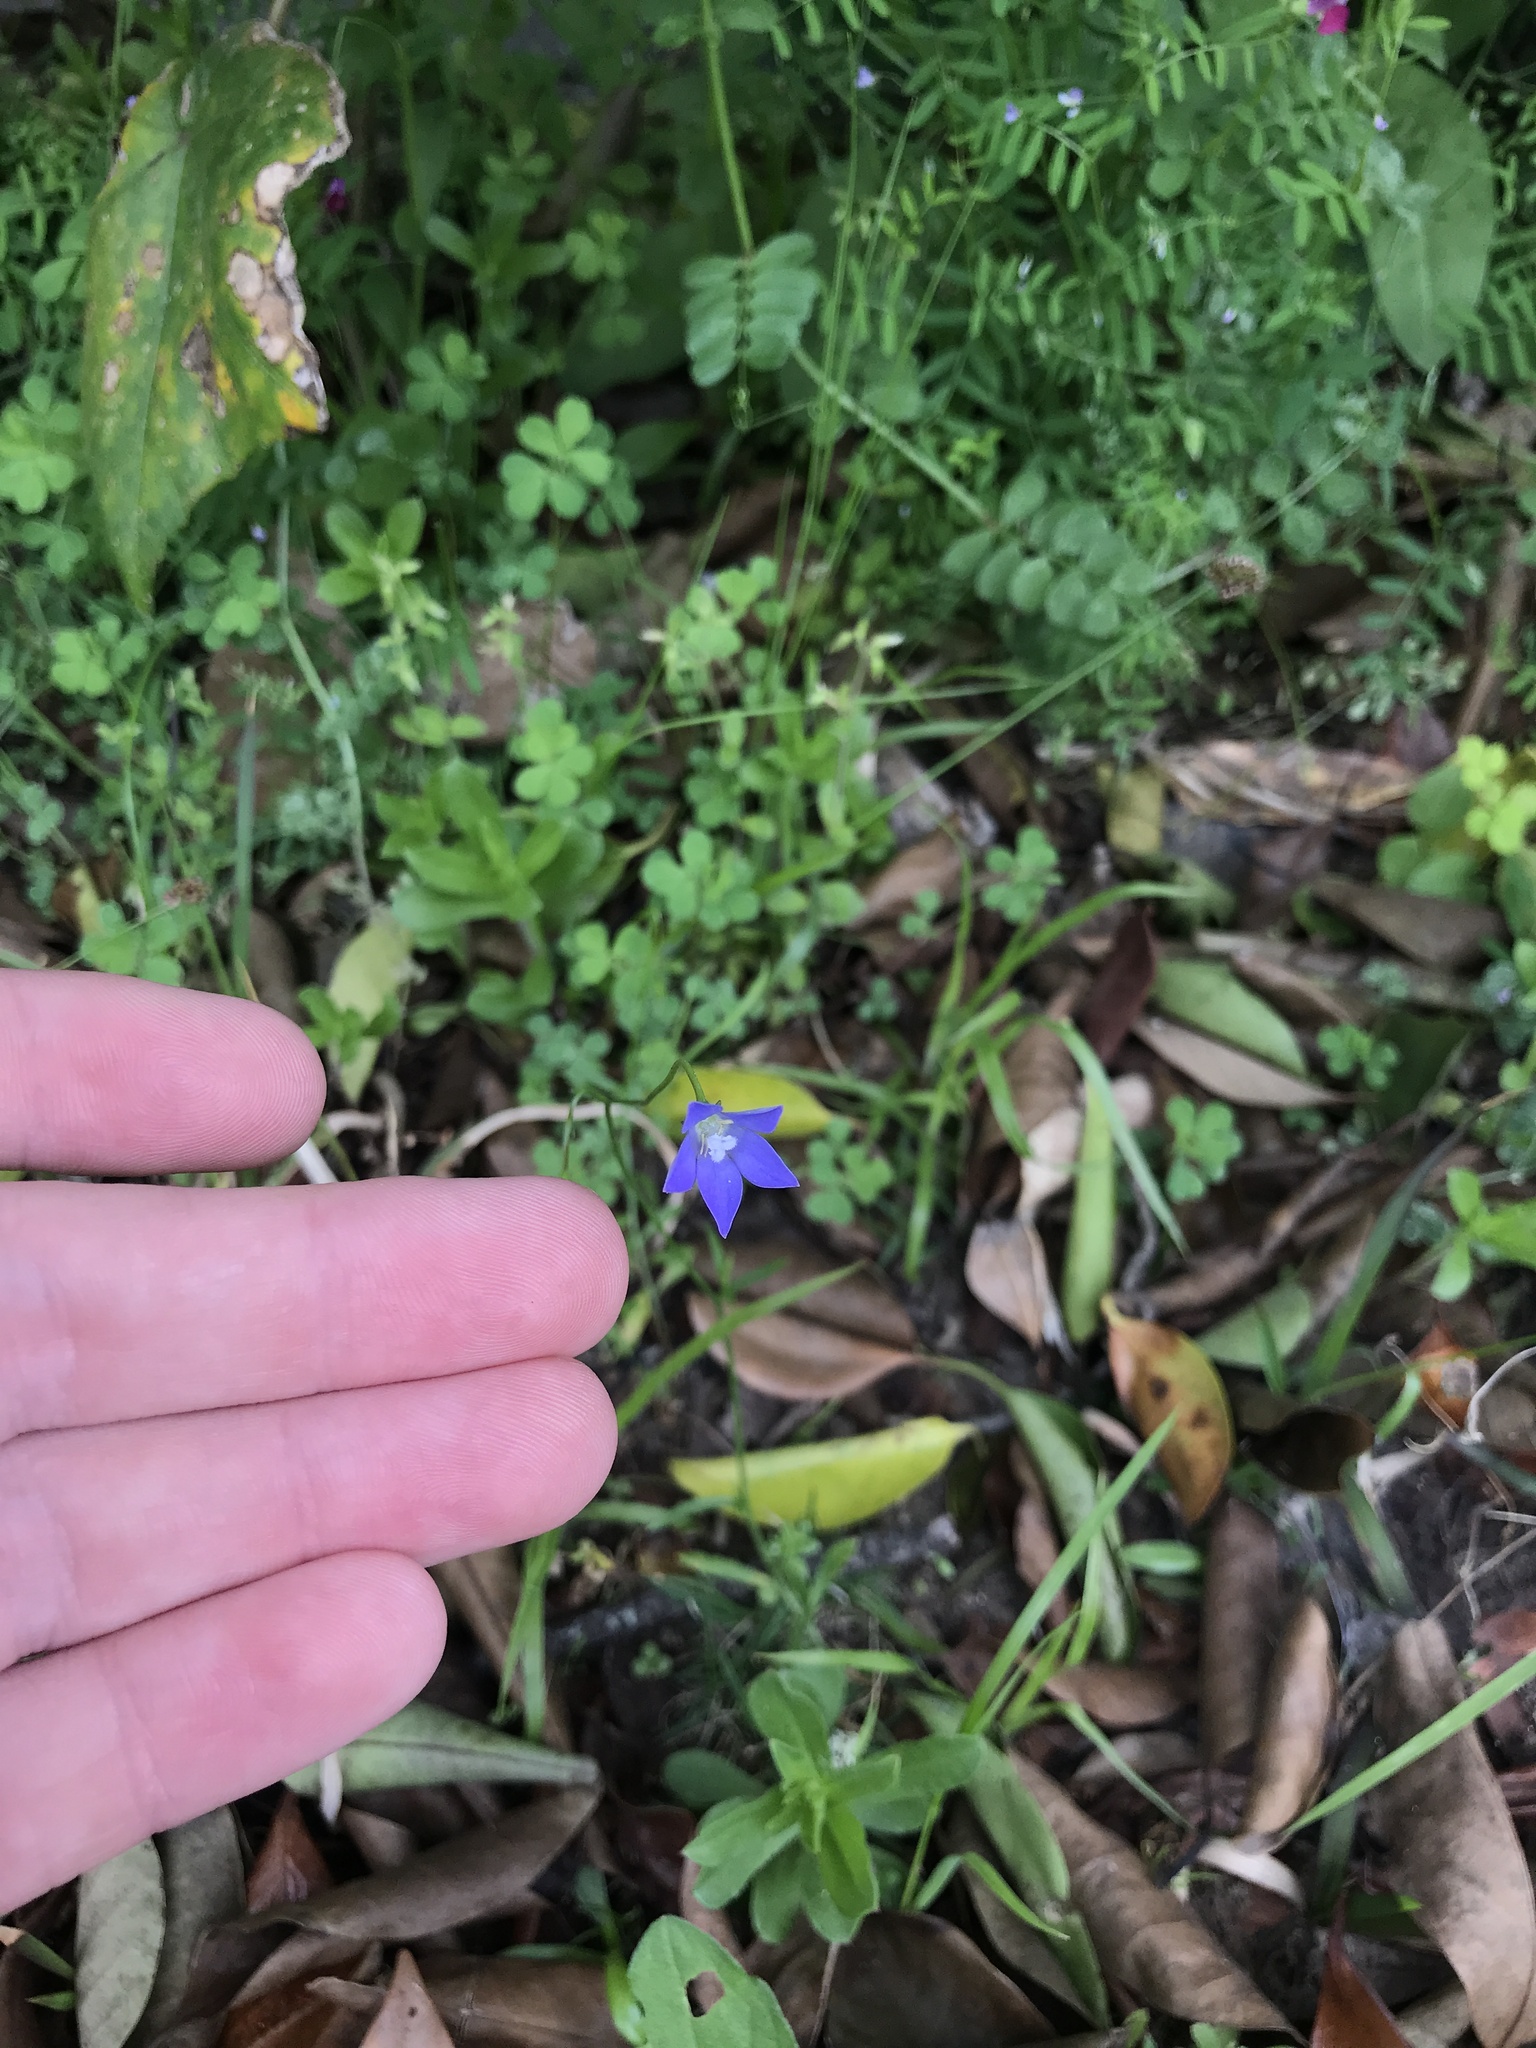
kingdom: Plantae
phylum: Tracheophyta
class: Magnoliopsida
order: Asterales
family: Campanulaceae
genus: Wahlenbergia
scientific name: Wahlenbergia marginata
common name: Southern rockbell
